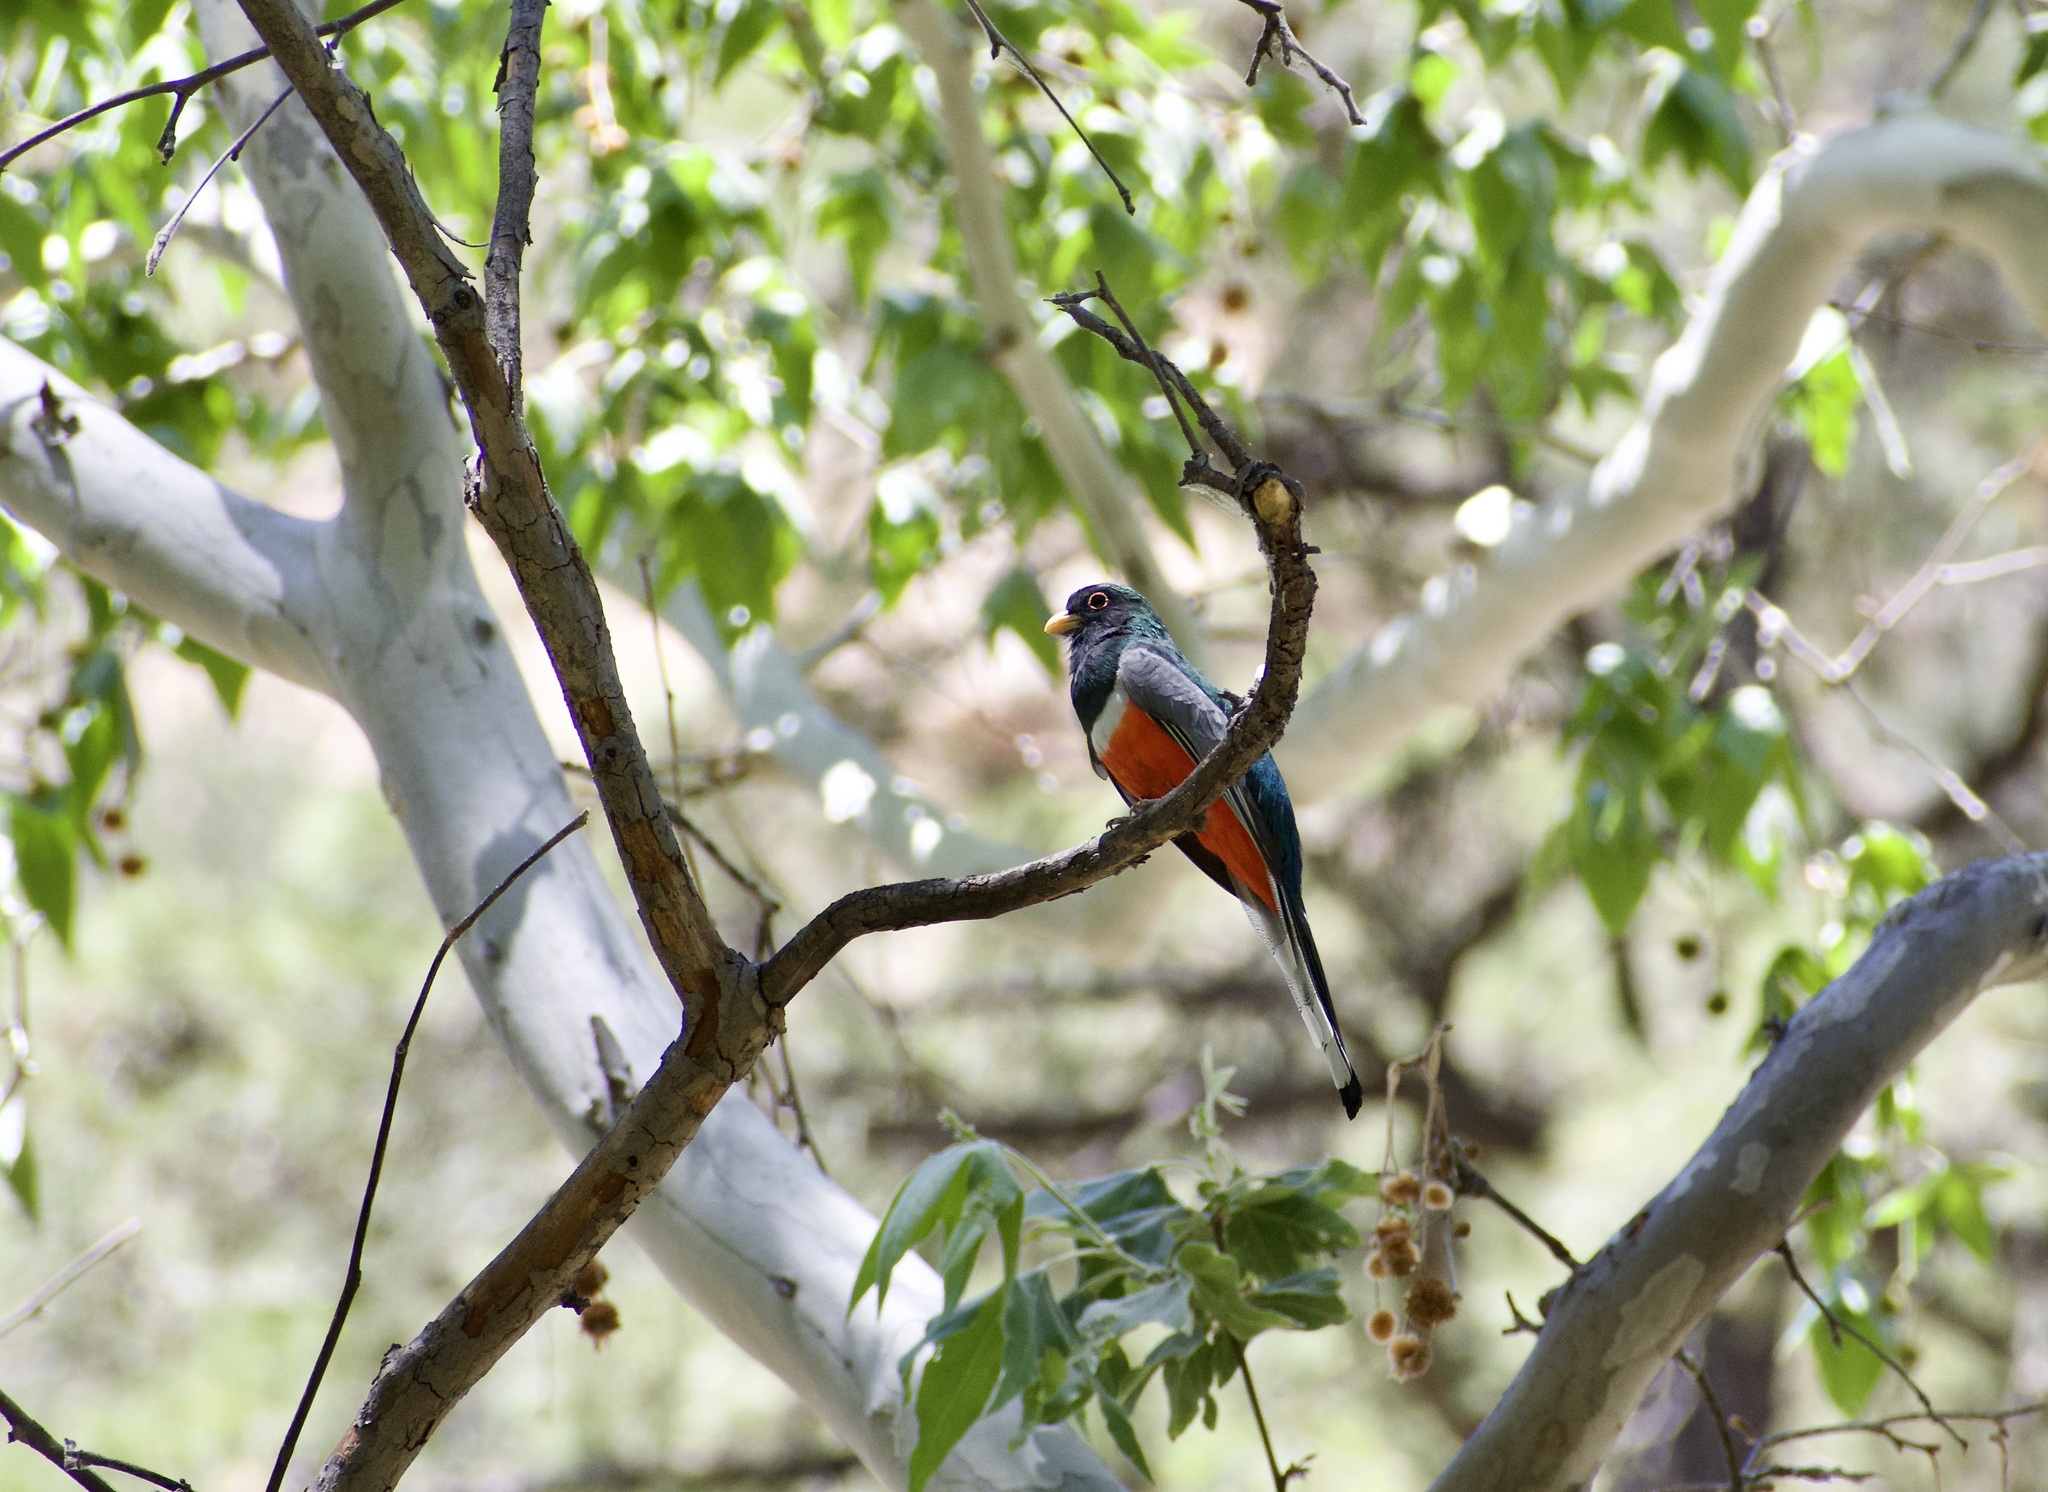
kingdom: Animalia
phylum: Chordata
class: Aves
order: Trogoniformes
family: Trogonidae
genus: Trogon
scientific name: Trogon elegans
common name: Elegant trogon
